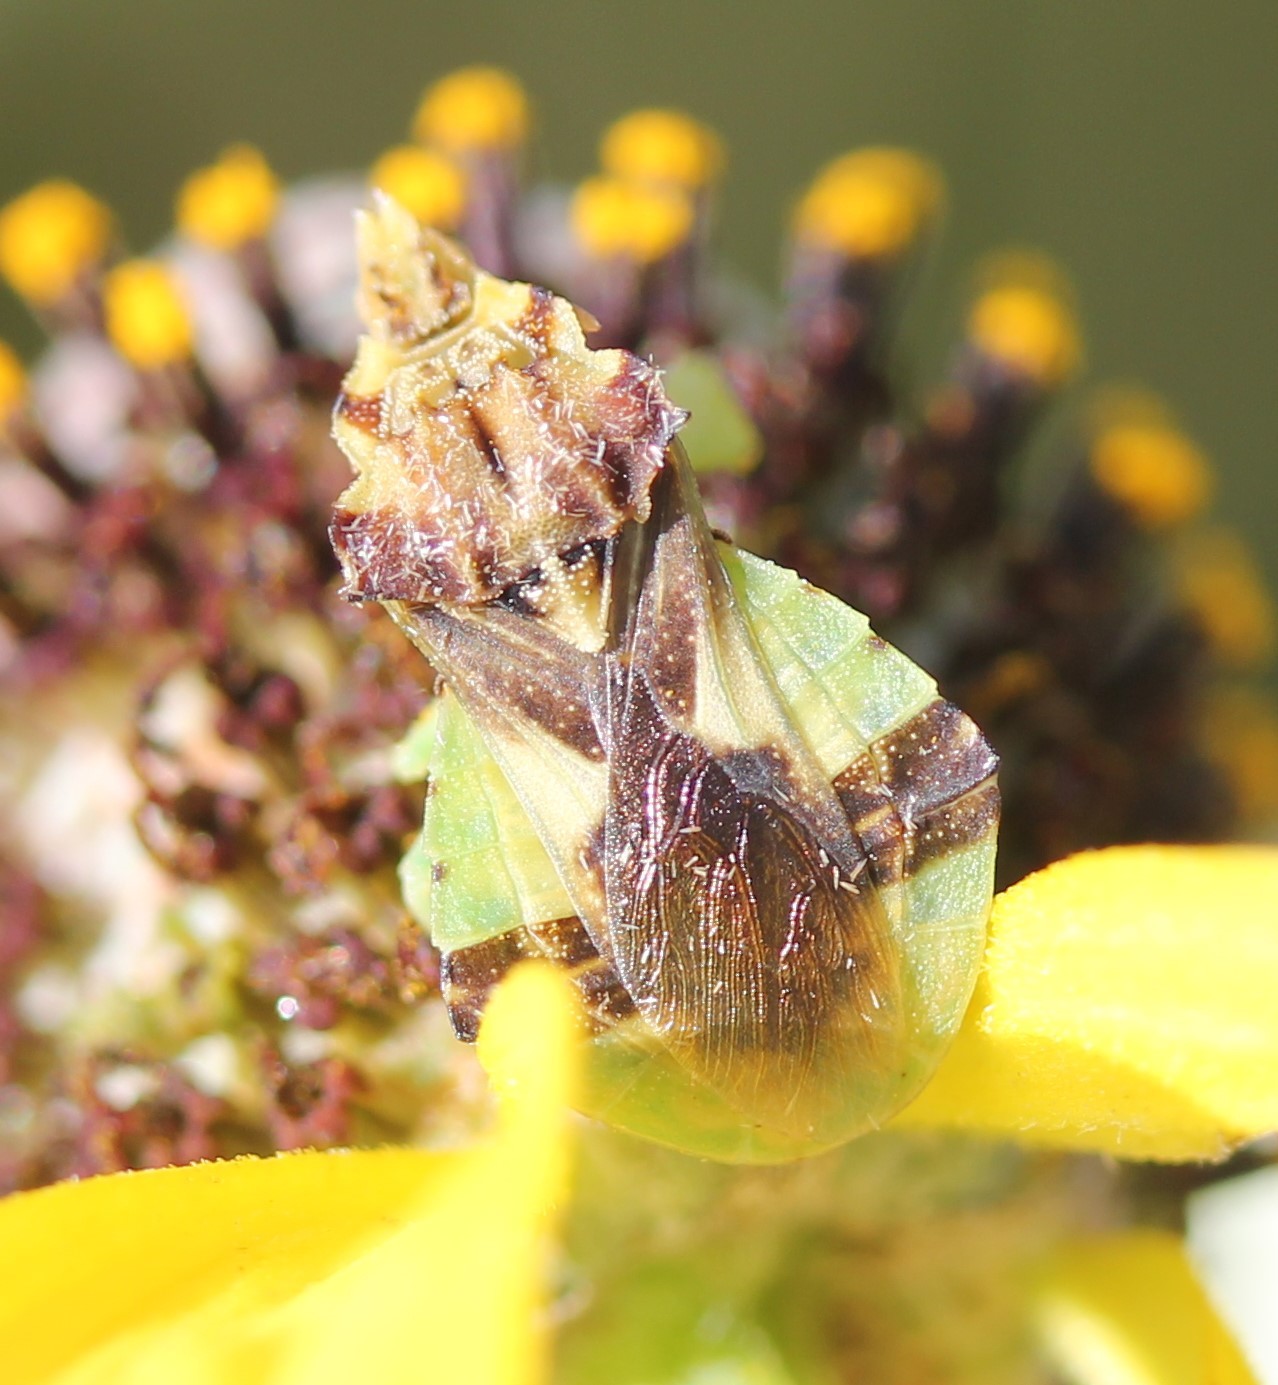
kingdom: Animalia
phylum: Arthropoda
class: Insecta
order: Hemiptera
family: Reduviidae
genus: Phymata
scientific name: Phymata americana
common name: Jagged ambush bug
